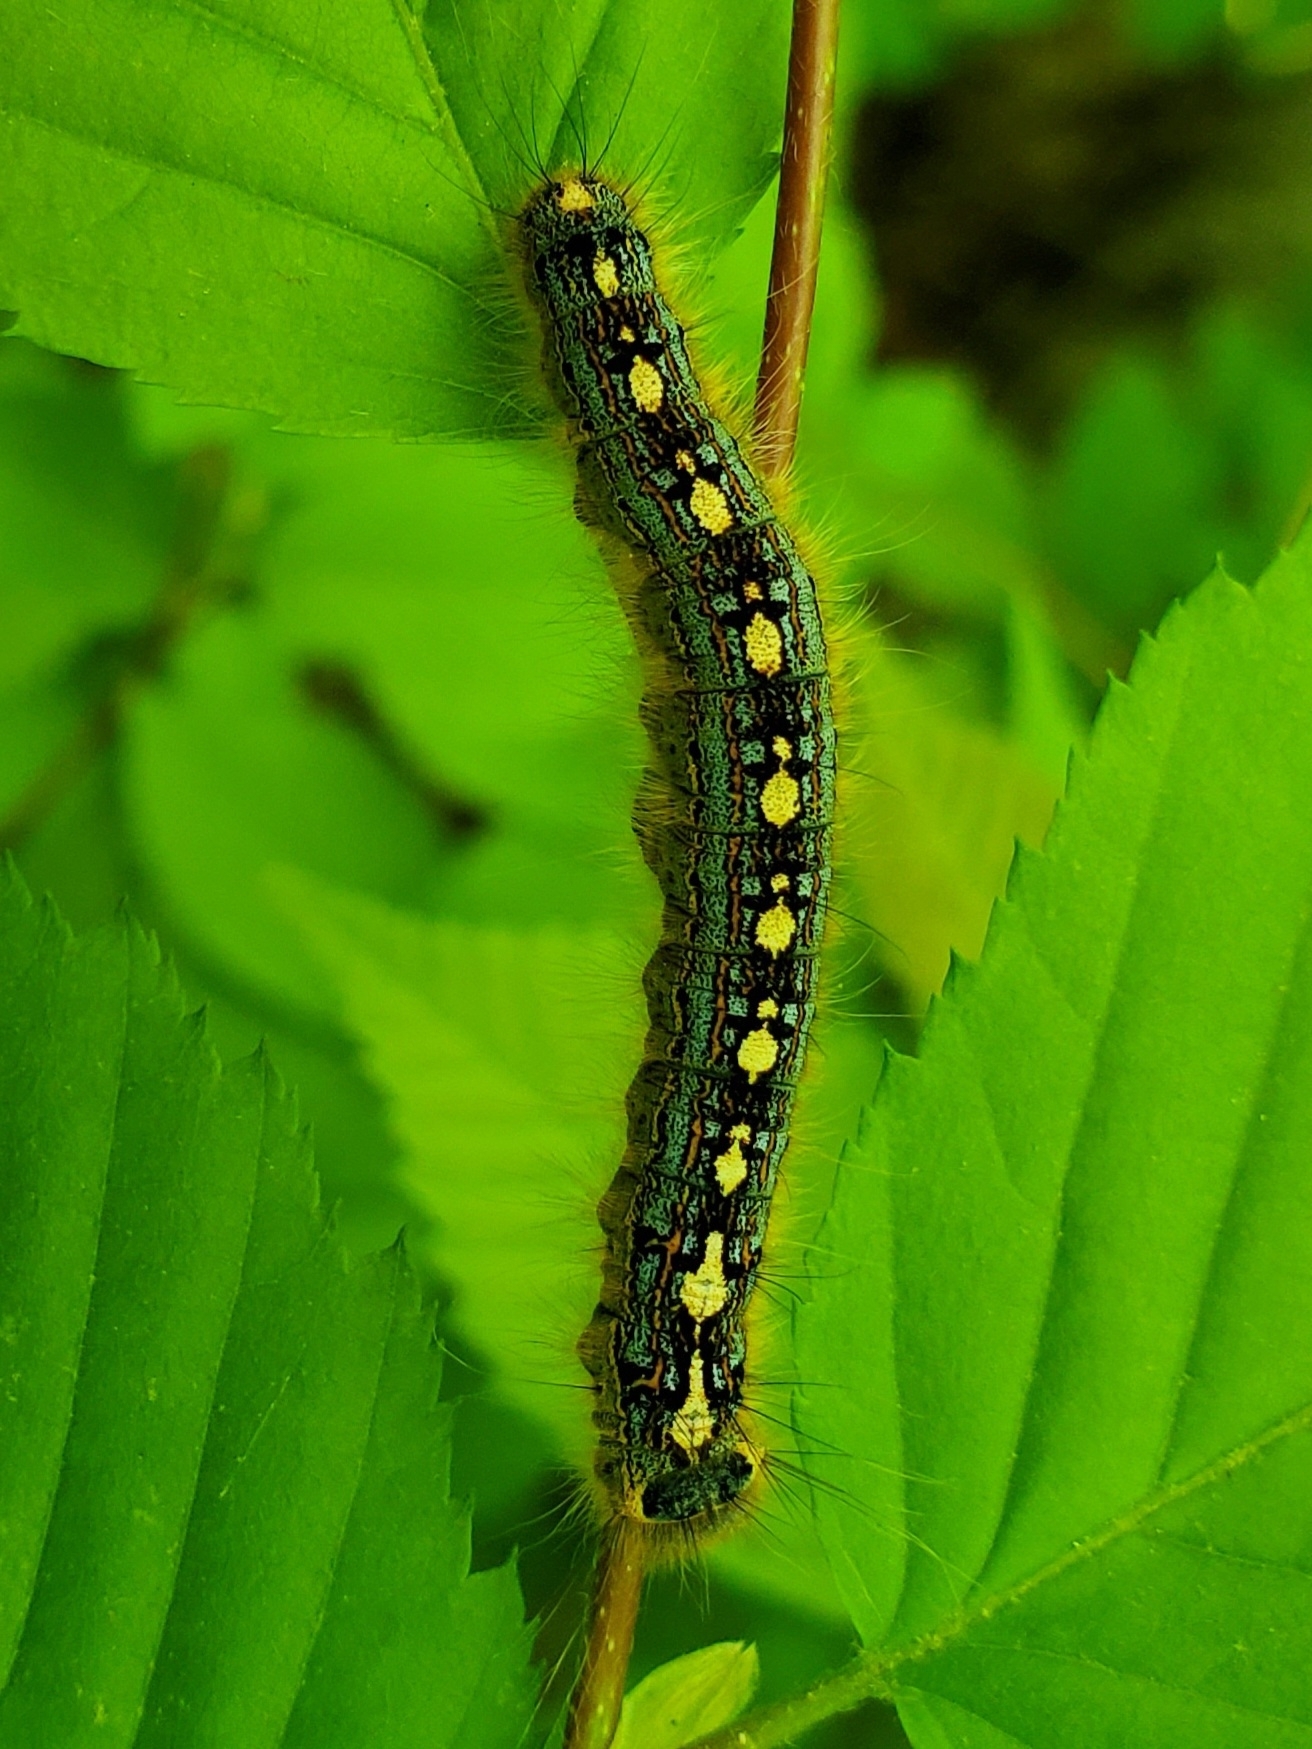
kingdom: Animalia
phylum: Arthropoda
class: Insecta
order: Lepidoptera
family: Lasiocampidae
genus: Malacosoma
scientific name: Malacosoma disstria
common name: Forest tent caterpillar
